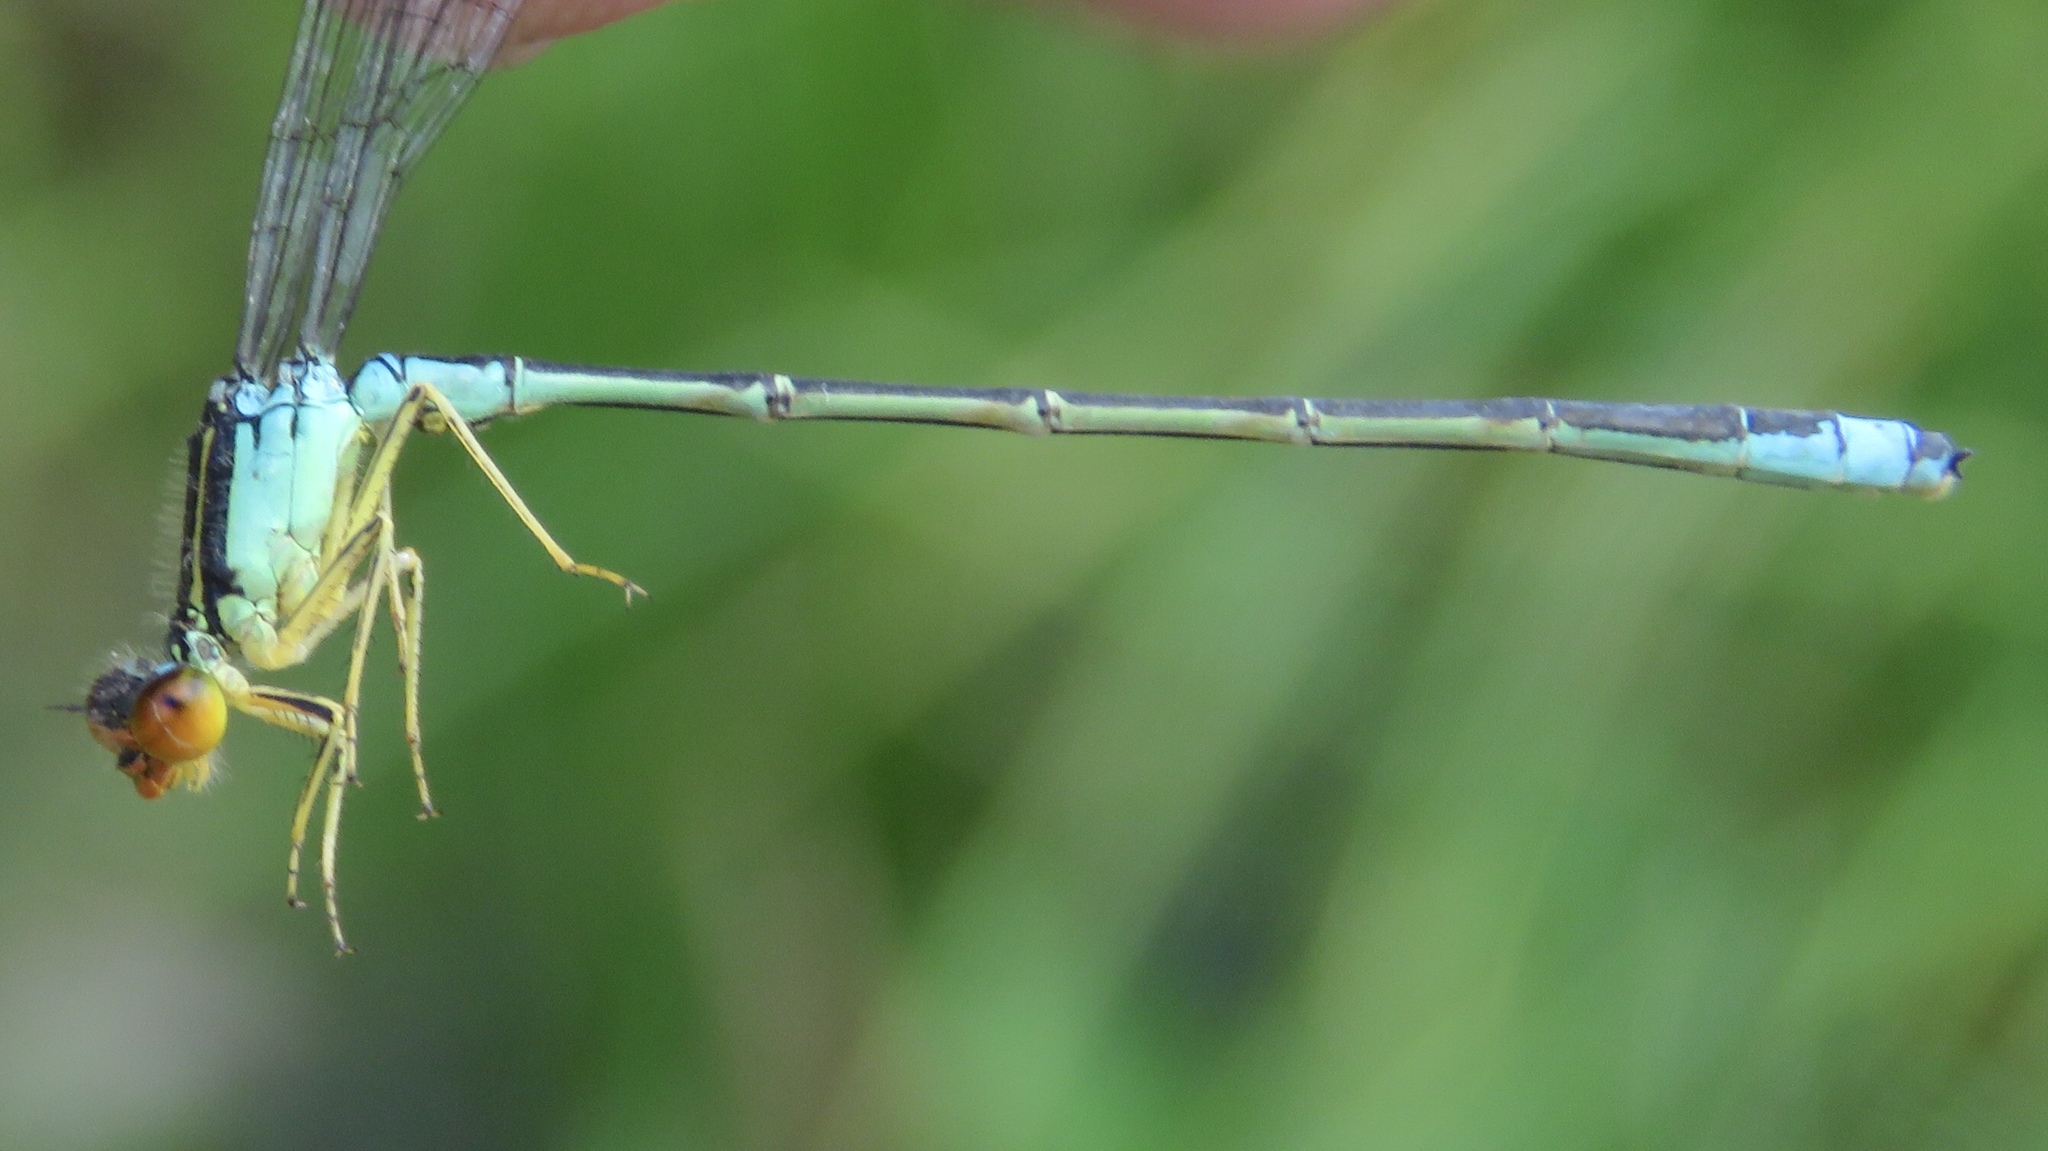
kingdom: Animalia
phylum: Arthropoda
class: Insecta
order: Odonata
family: Coenagrionidae
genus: Enallagma
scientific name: Enallagma antennatum
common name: Rainbow bluet
